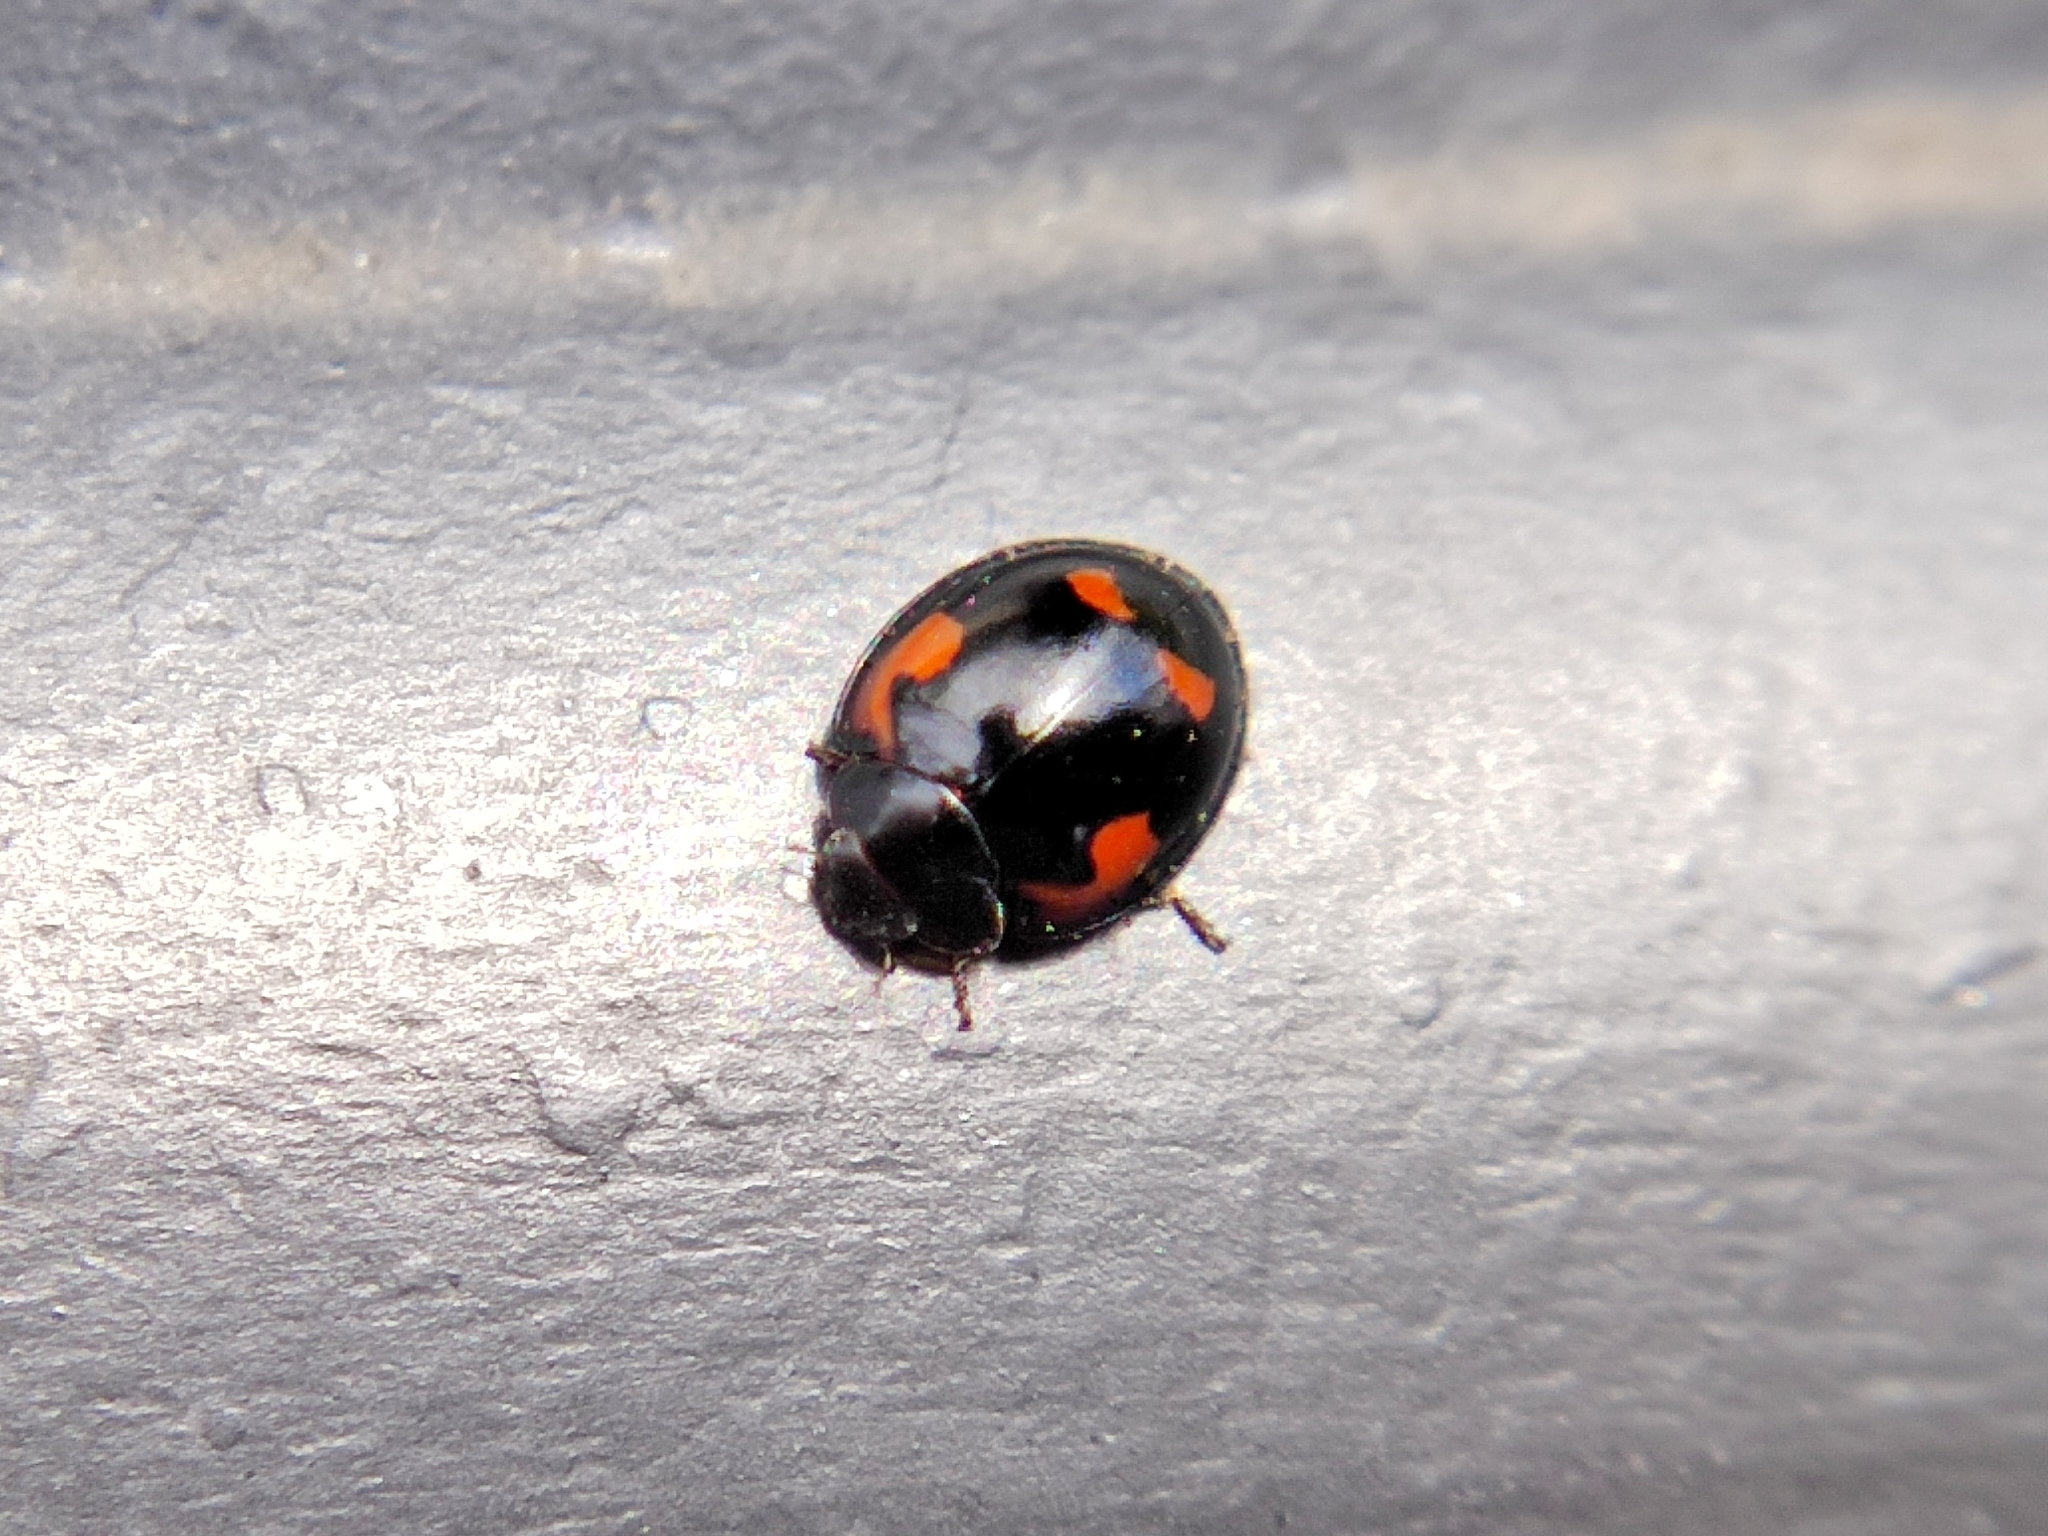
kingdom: Animalia
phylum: Arthropoda
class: Insecta
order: Coleoptera
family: Coccinellidae
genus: Brumus
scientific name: Brumus quadripustulatus
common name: Ladybird beetle
